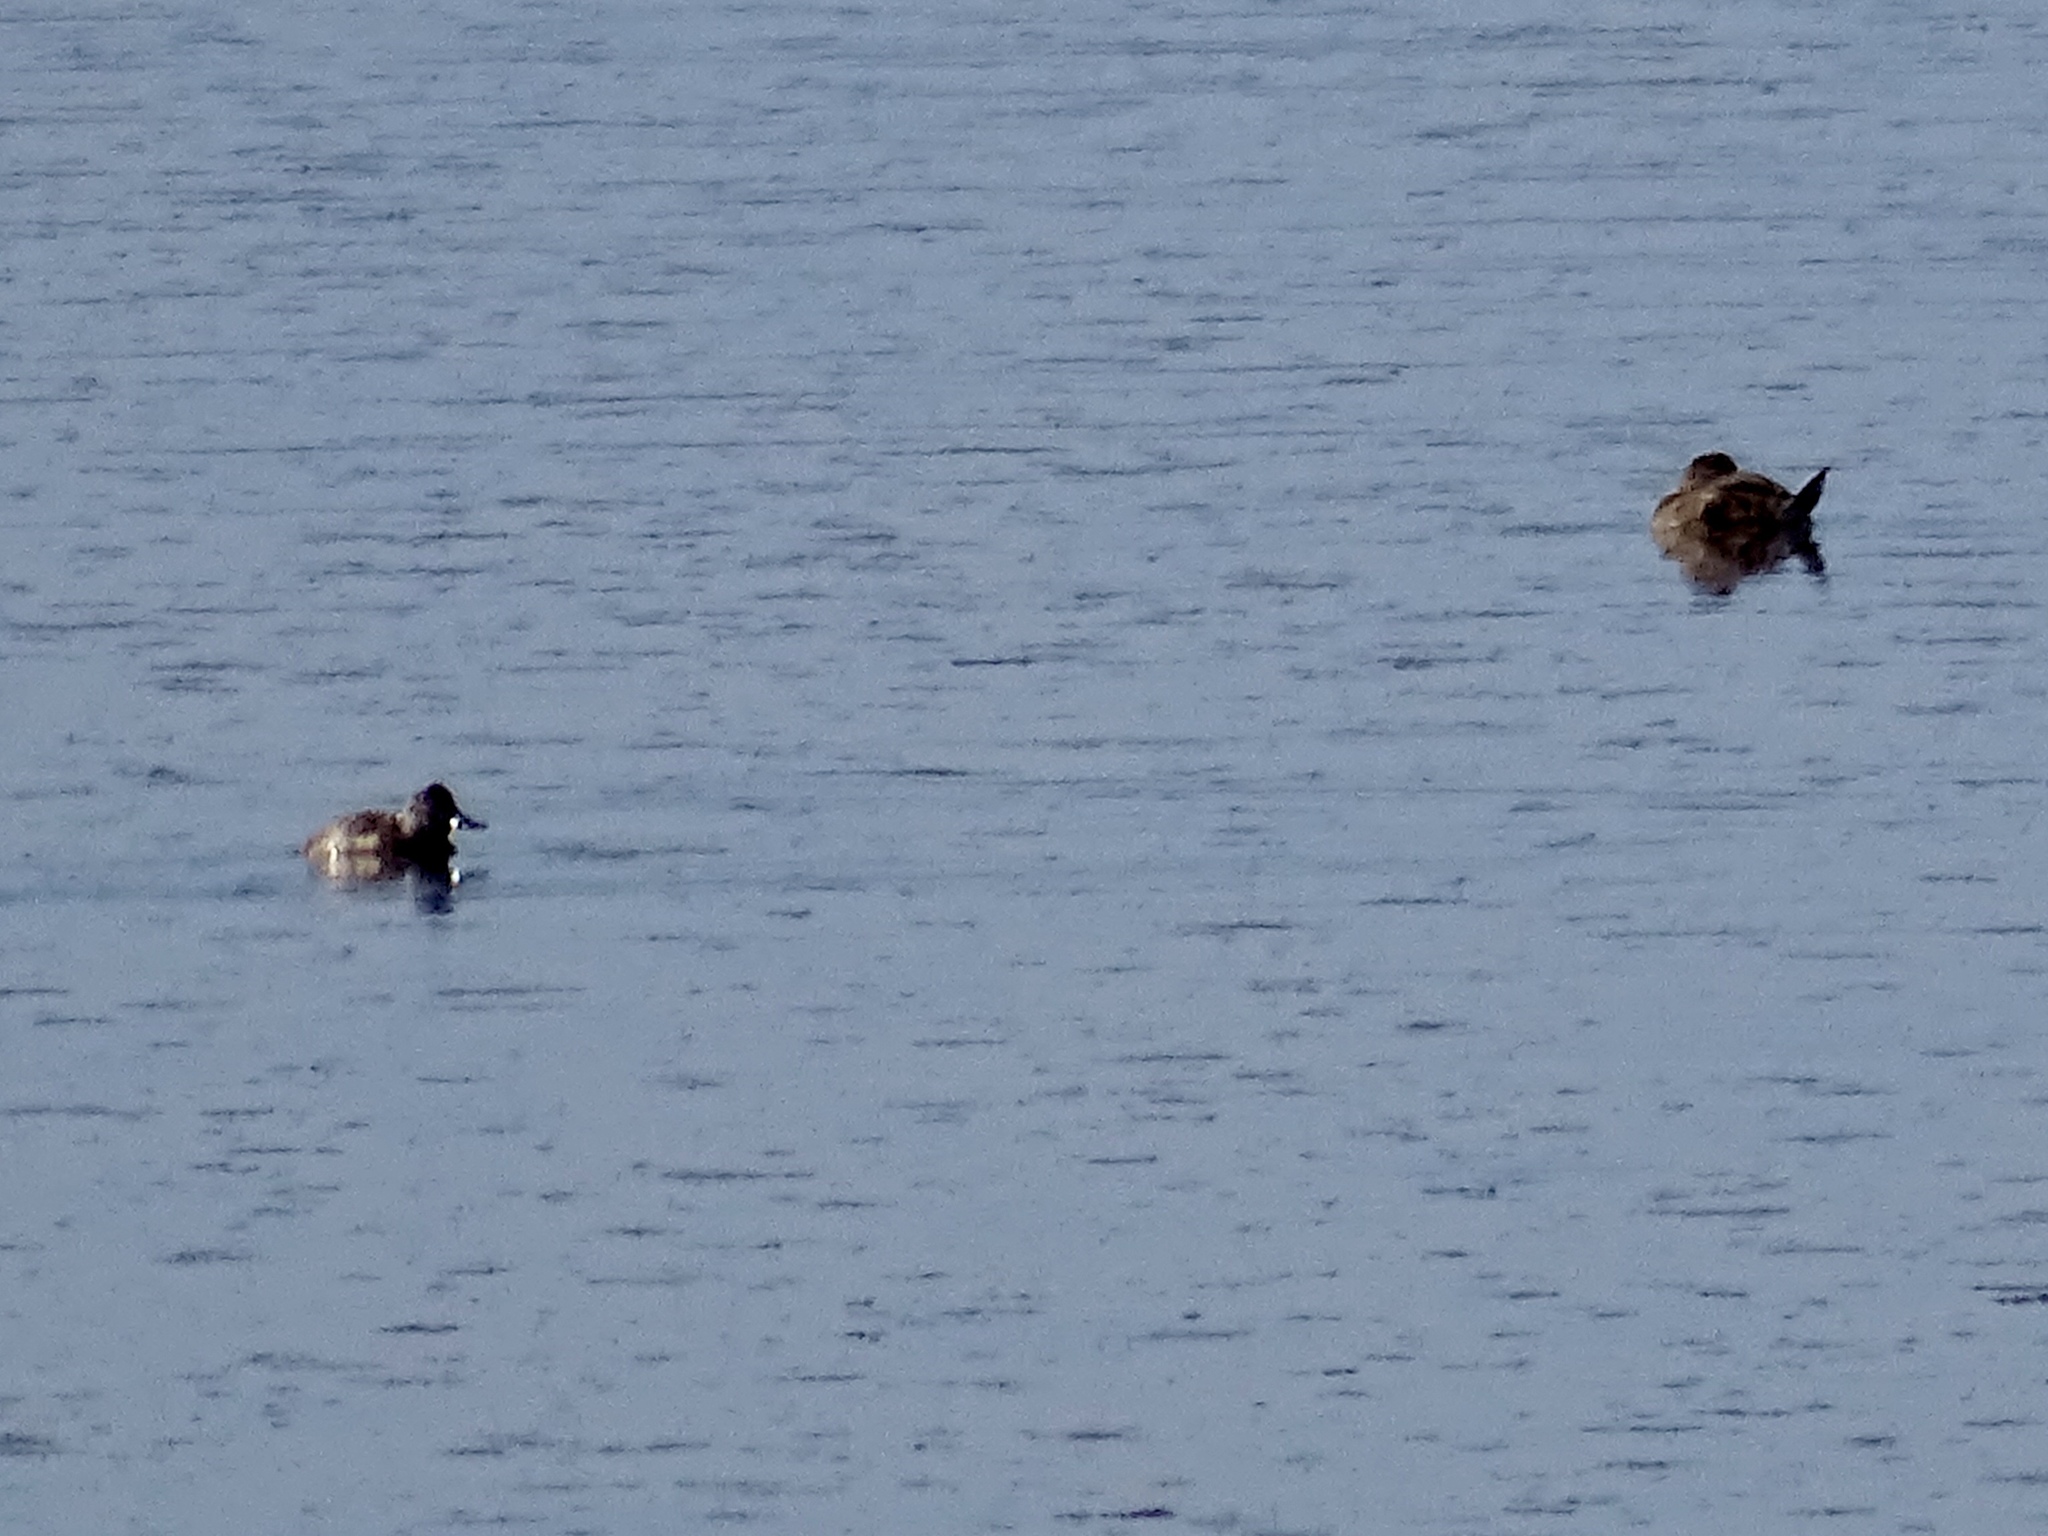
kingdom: Animalia
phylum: Chordata
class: Aves
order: Anseriformes
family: Anatidae
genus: Oxyura
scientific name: Oxyura jamaicensis
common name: Ruddy duck
